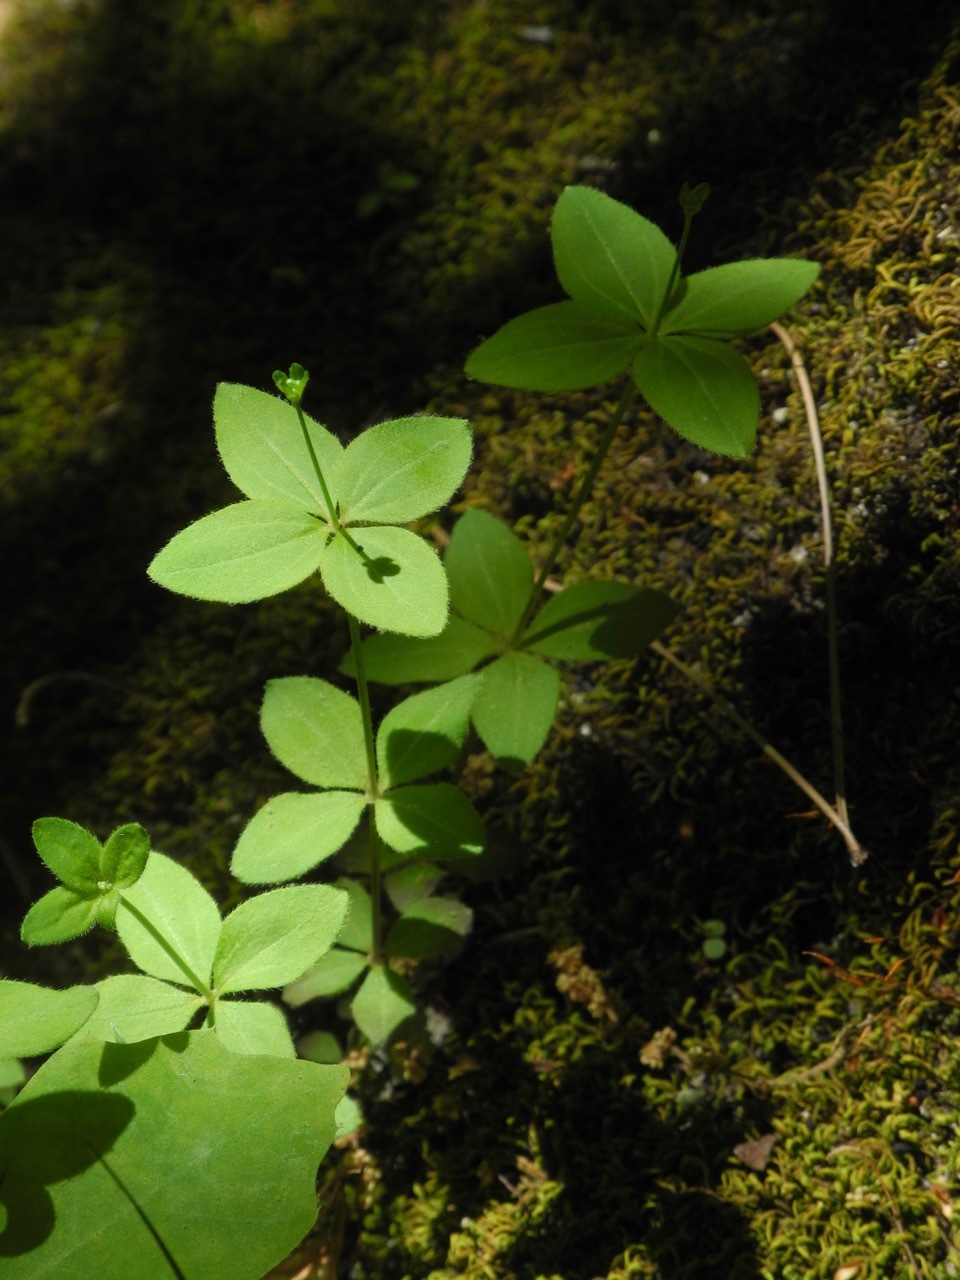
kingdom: Plantae
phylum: Tracheophyta
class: Magnoliopsida
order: Gentianales
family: Rubiaceae
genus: Galium
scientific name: Galium circaezans
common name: Forest bedstraw
